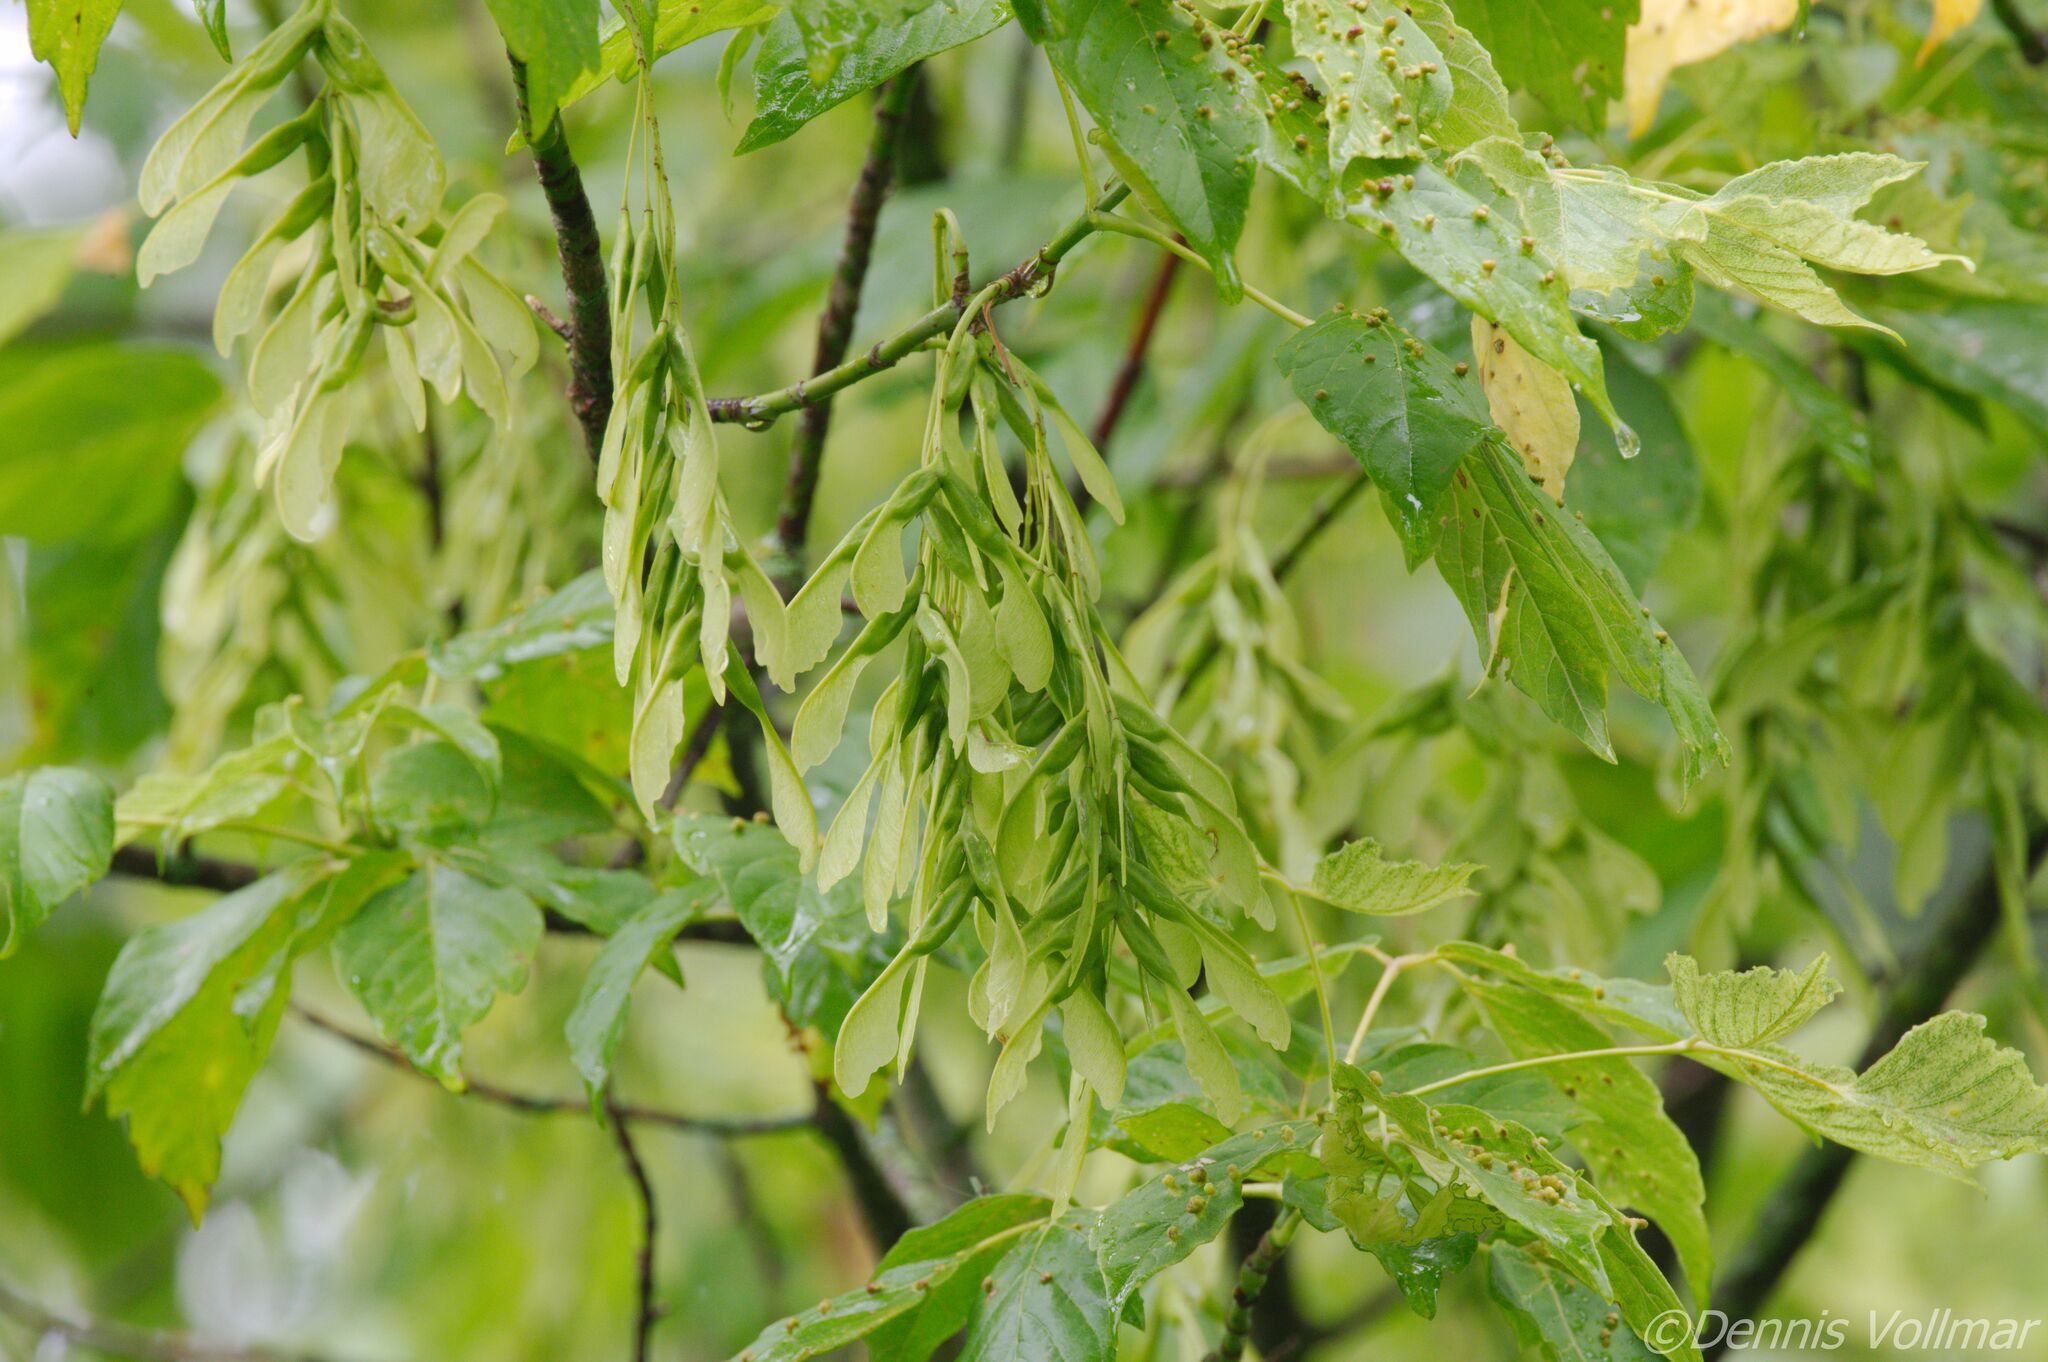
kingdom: Plantae
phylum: Tracheophyta
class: Magnoliopsida
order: Sapindales
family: Sapindaceae
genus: Acer
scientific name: Acer negundo
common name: Ashleaf maple
